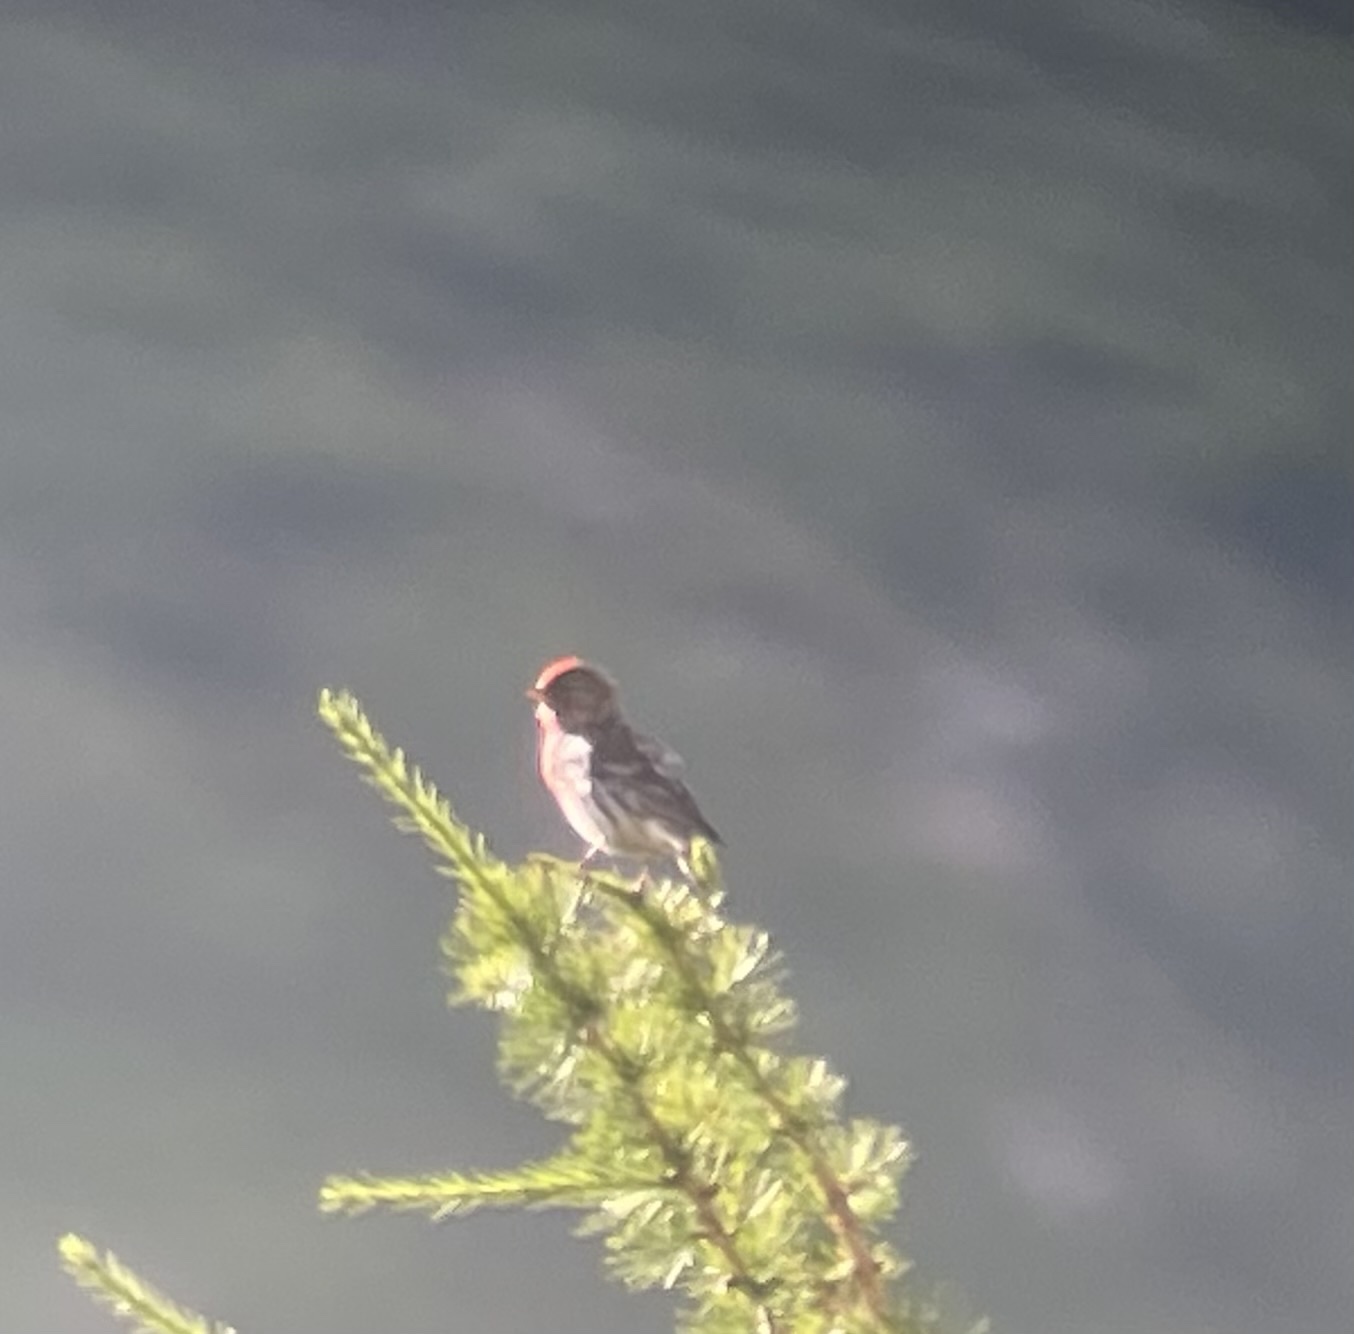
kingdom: Animalia
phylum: Chordata
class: Aves
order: Passeriformes
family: Fringillidae
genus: Acanthis
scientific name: Acanthis flammea
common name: Common redpoll
